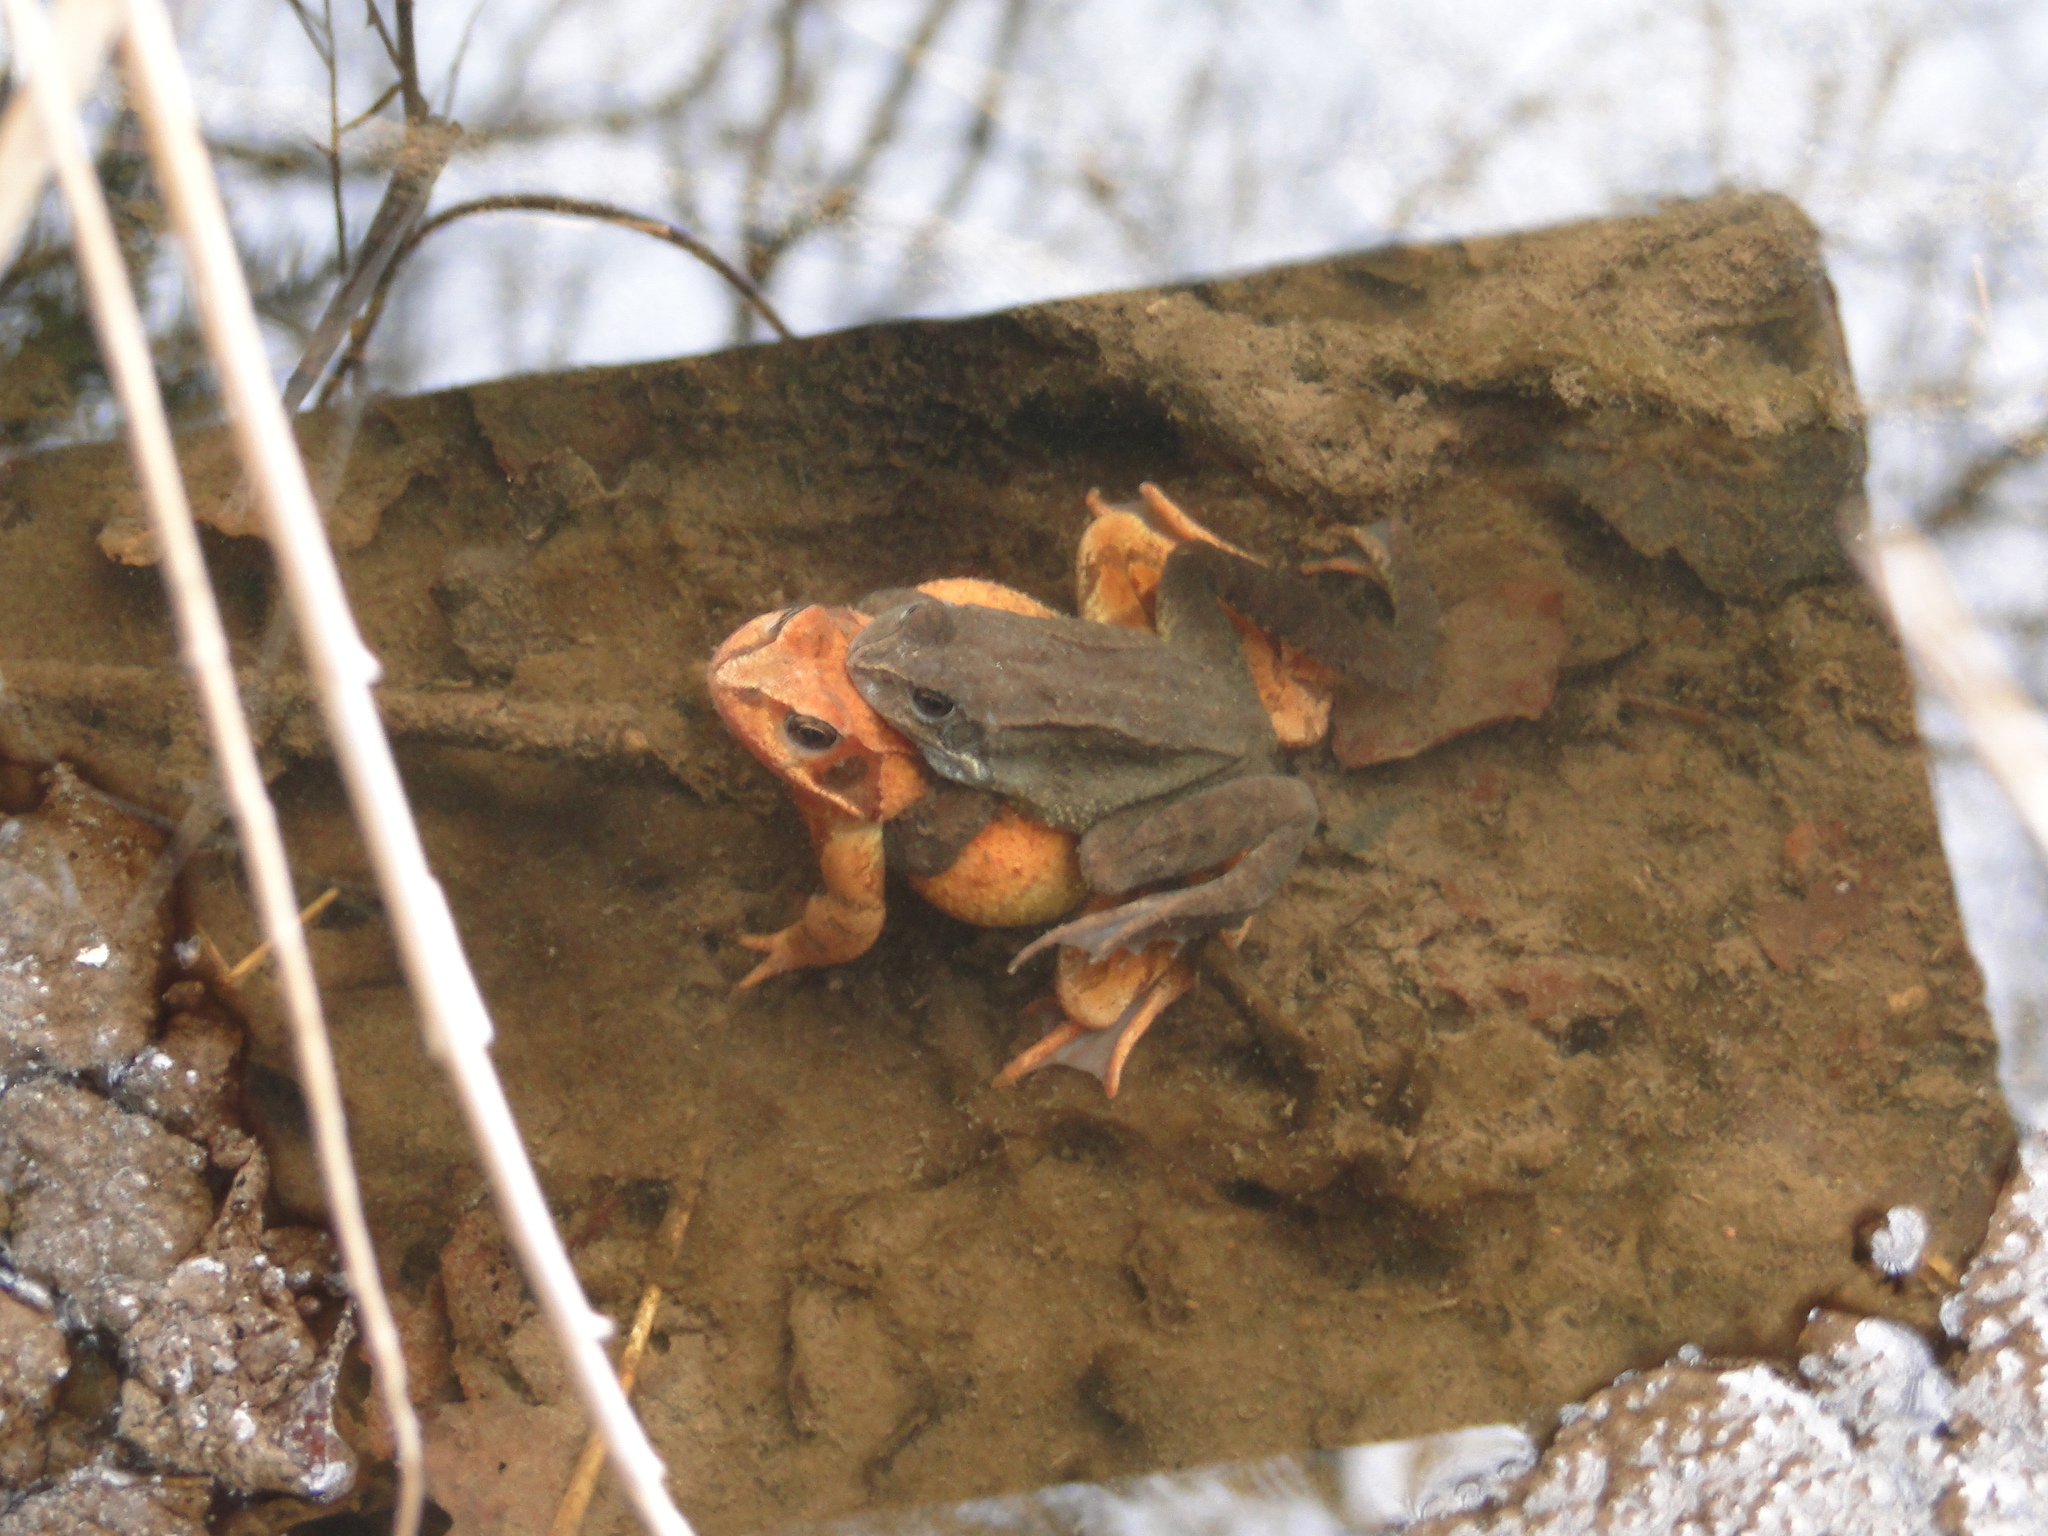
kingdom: Animalia
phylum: Chordata
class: Amphibia
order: Anura
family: Ranidae
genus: Rana
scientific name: Rana temporaria
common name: Common frog
